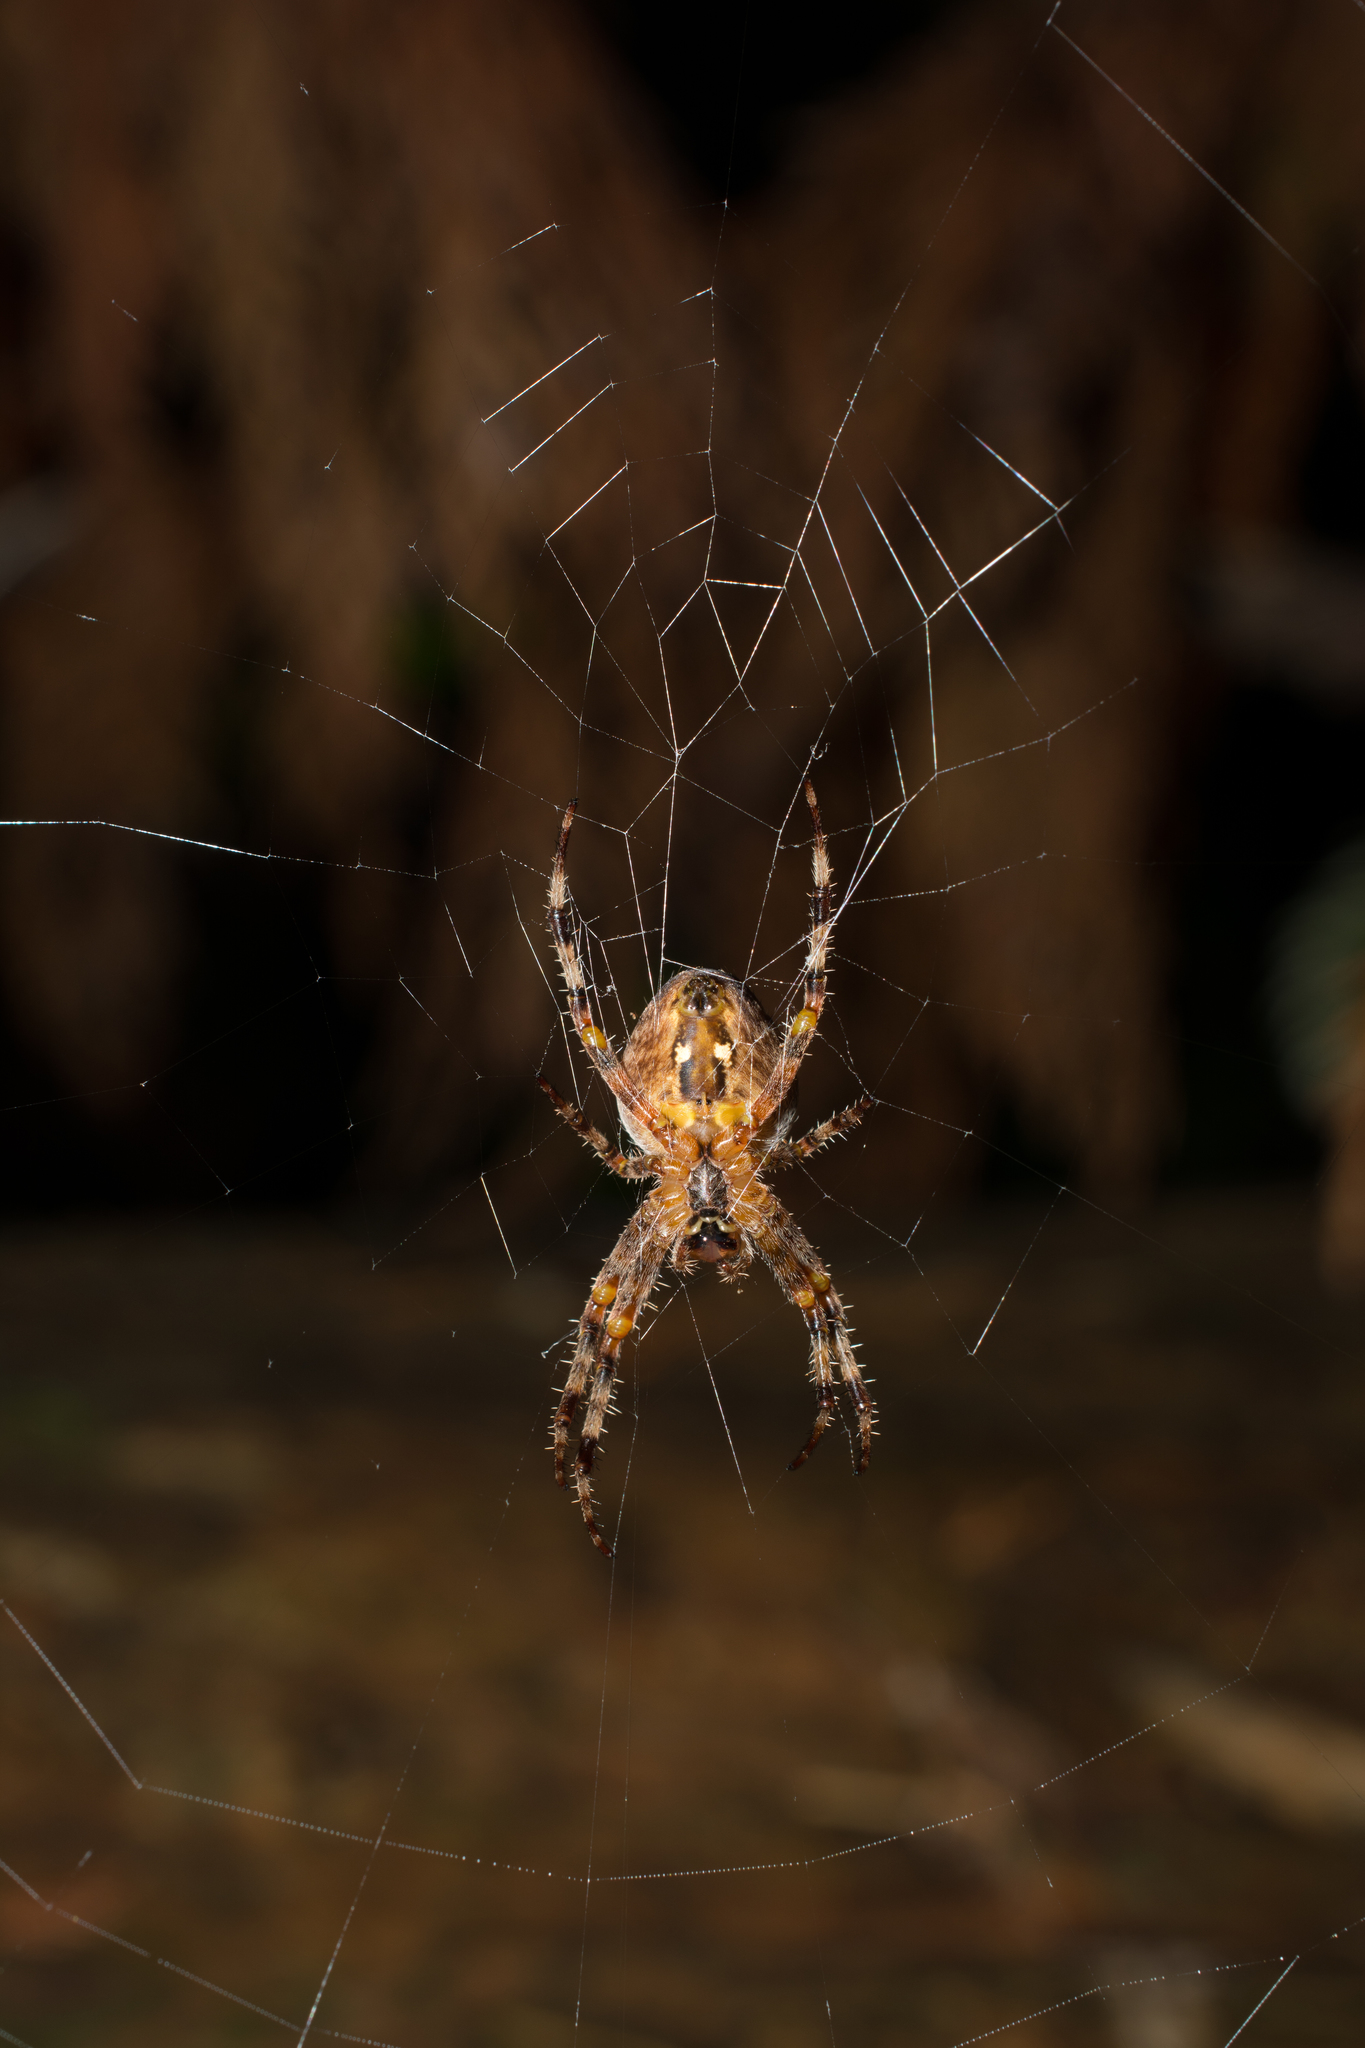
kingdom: Animalia
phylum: Arthropoda
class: Arachnida
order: Araneae
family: Araneidae
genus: Araneus
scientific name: Araneus diadematus
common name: Cross orbweaver
